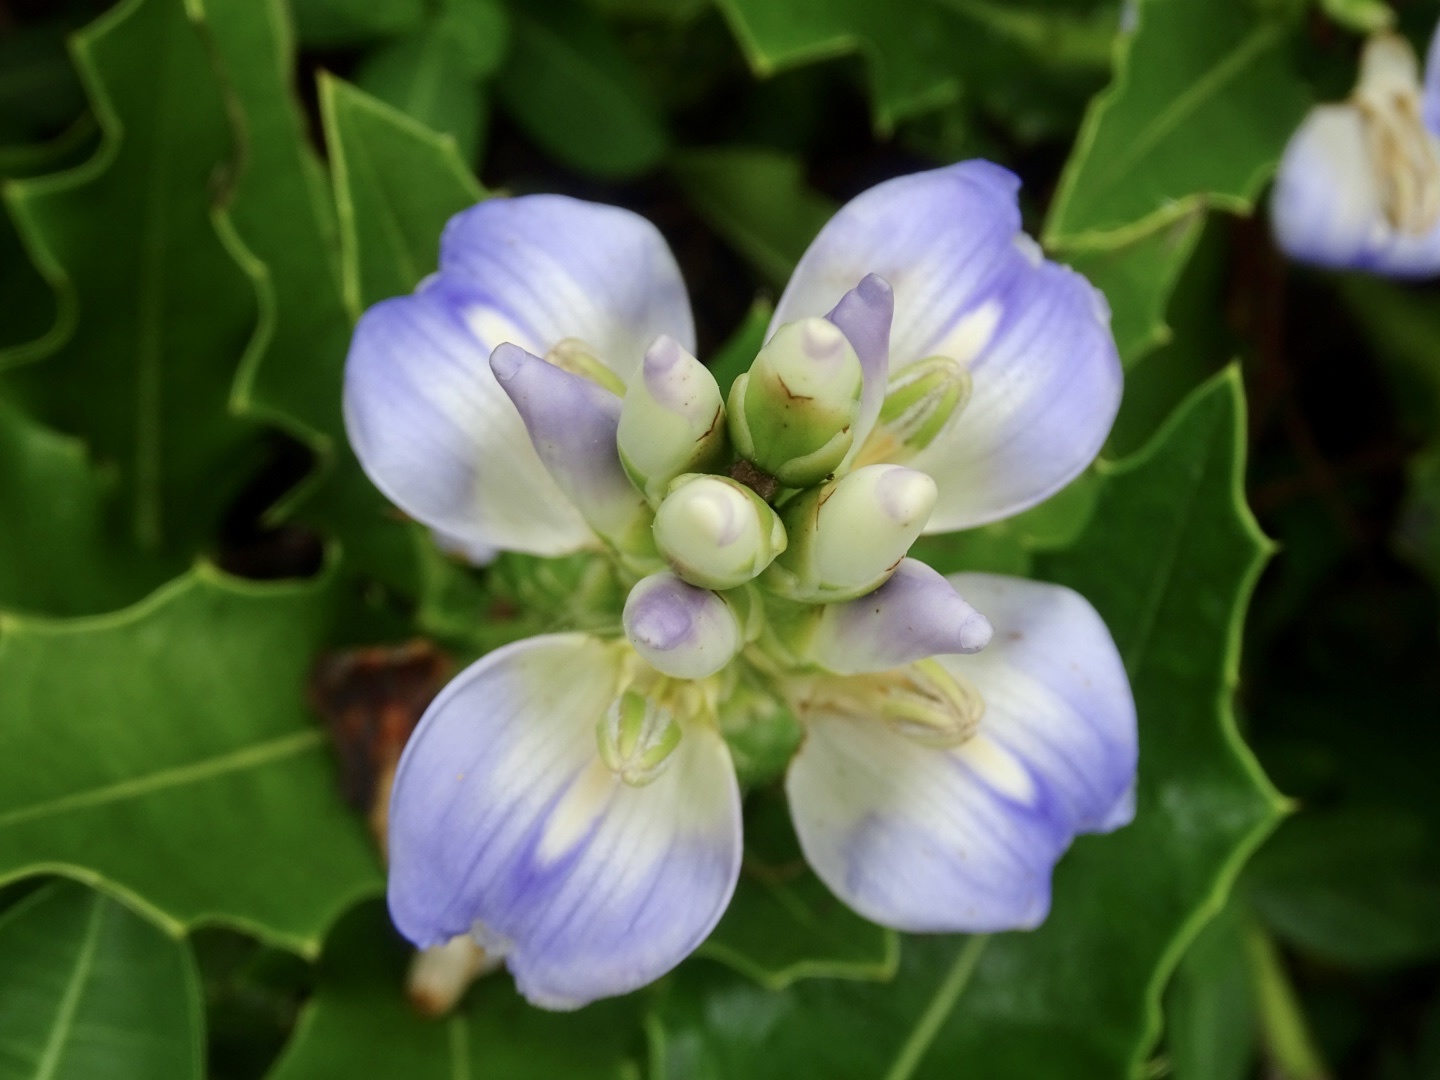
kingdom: Plantae
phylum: Tracheophyta
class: Magnoliopsida
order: Lamiales
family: Acanthaceae
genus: Acanthus
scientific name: Acanthus ilicifolius
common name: Holy mangrove
